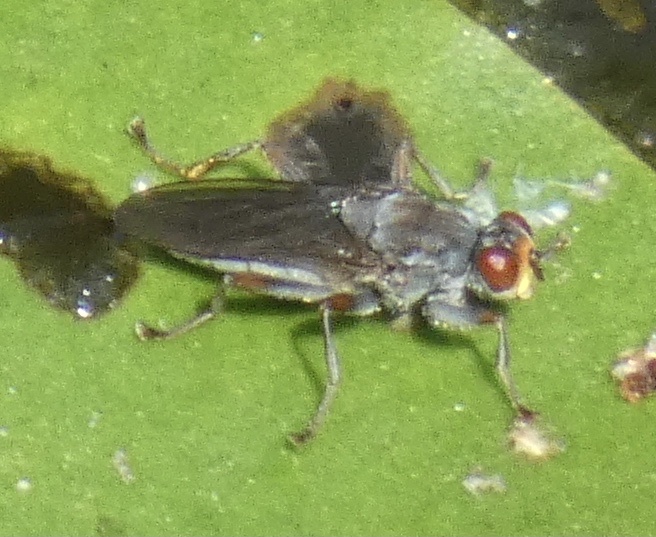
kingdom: Animalia
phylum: Arthropoda
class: Insecta
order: Diptera
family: Scathophagidae
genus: Hydromyza
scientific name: Hydromyza livens
